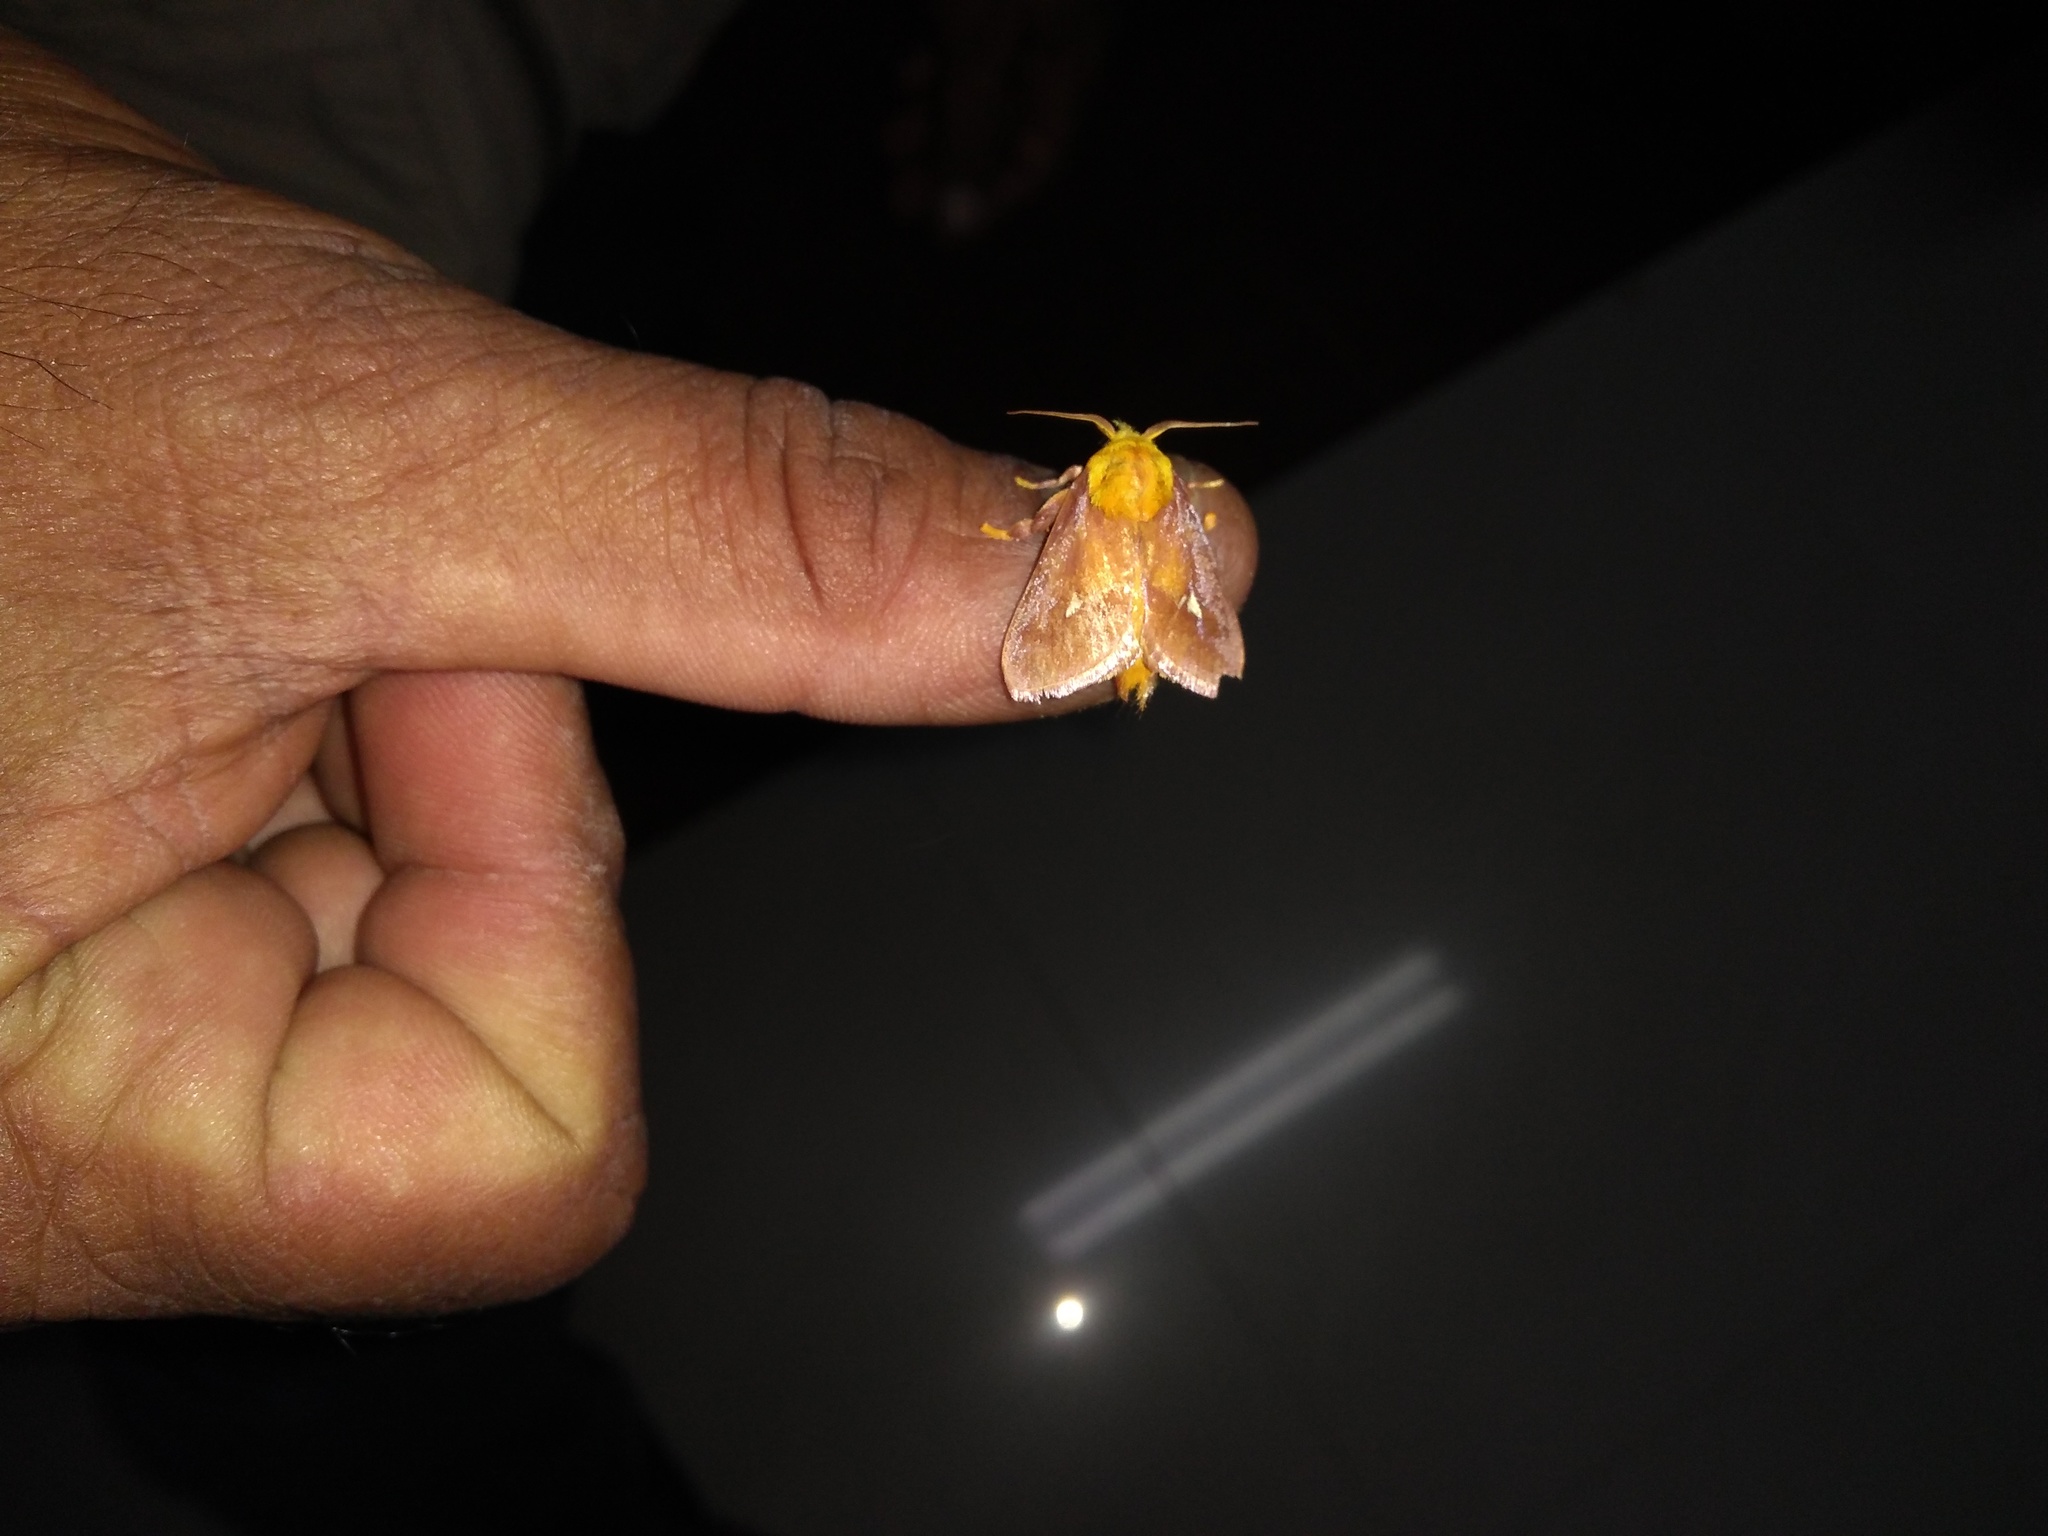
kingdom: Animalia
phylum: Arthropoda
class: Insecta
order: Lepidoptera
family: Limacodidae
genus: Miresa
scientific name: Miresa albipuncta
